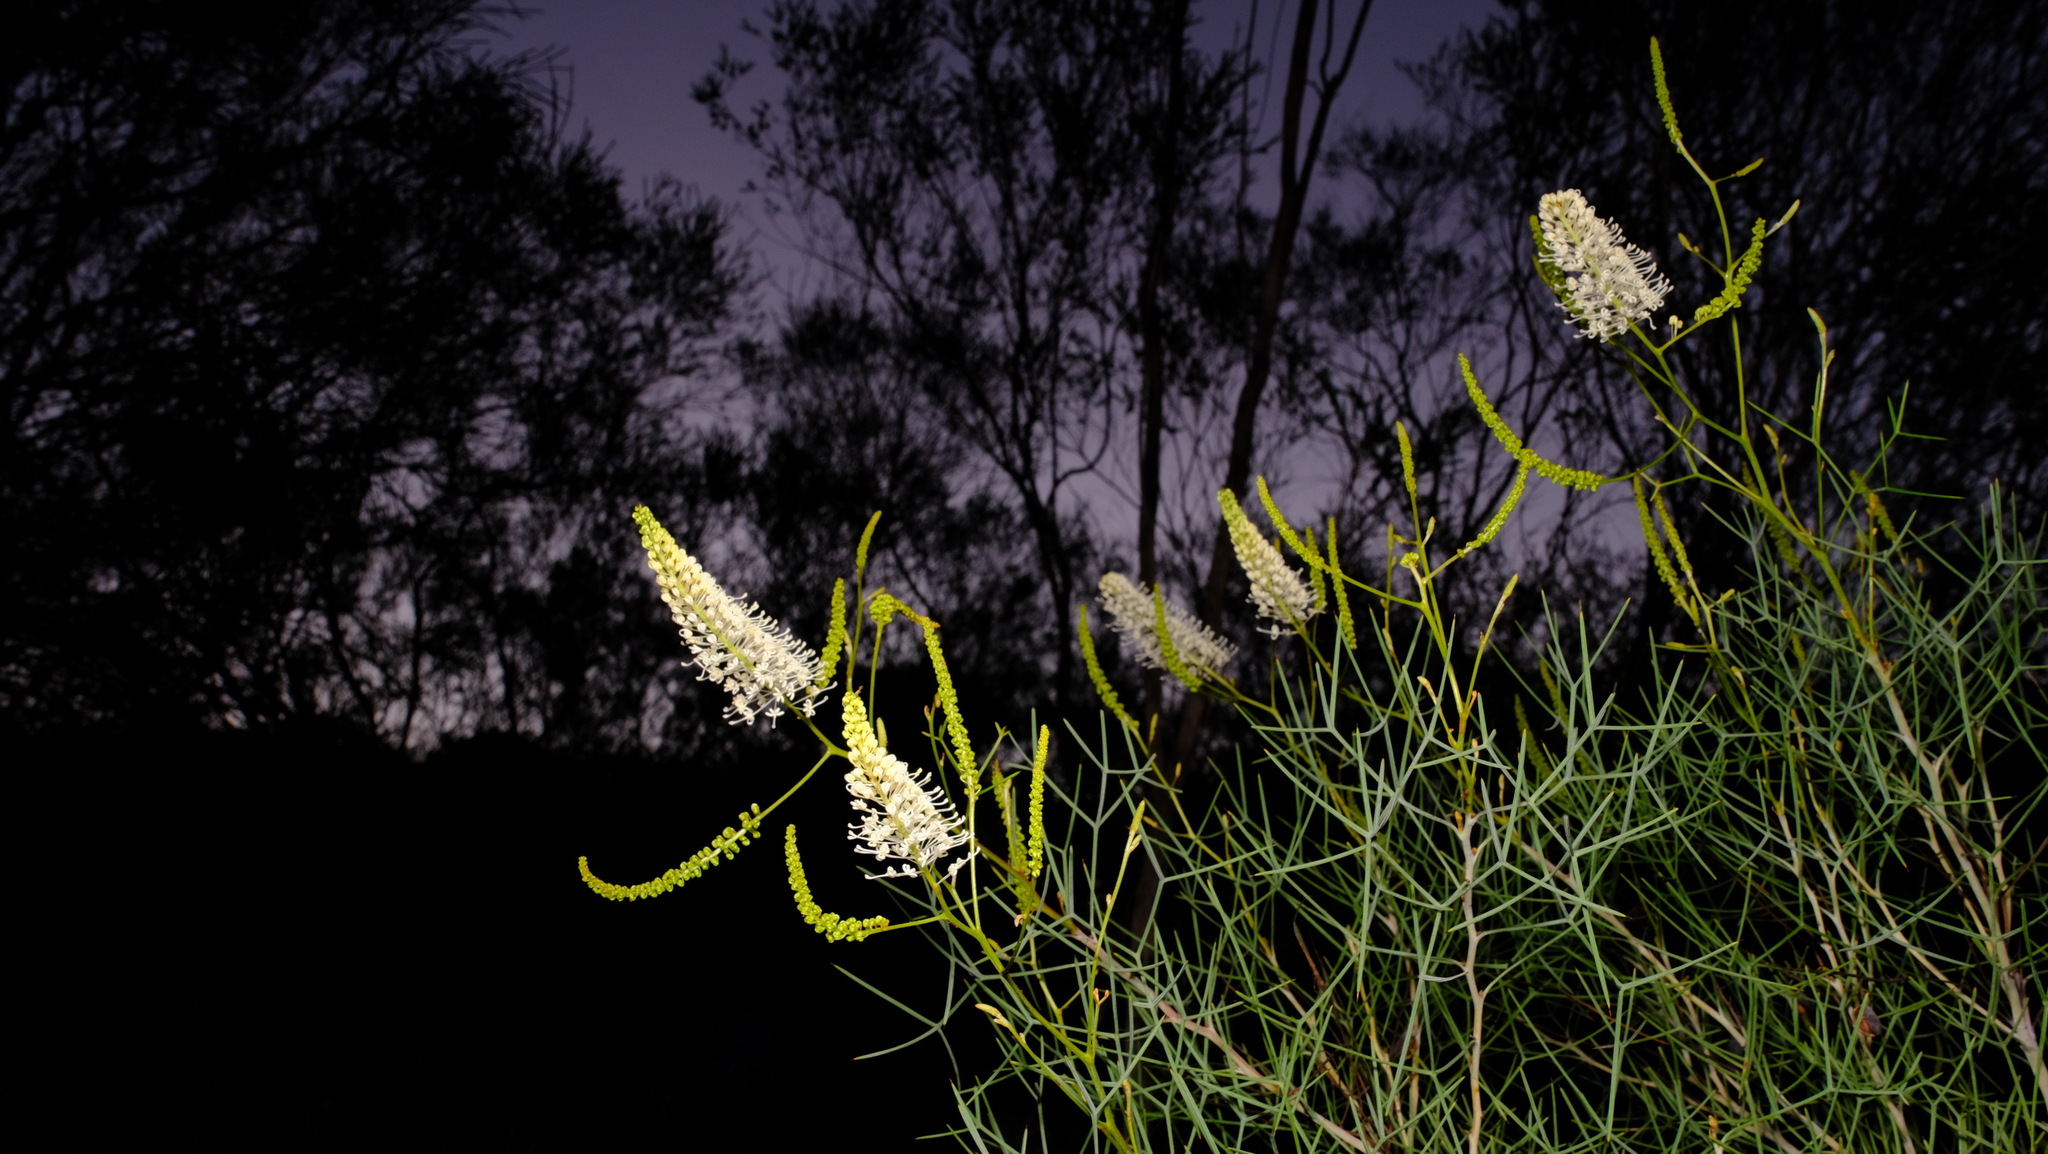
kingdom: Plantae
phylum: Tracheophyta
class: Magnoliopsida
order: Proteales
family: Proteaceae
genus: Grevillea
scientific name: Grevillea leucoclada
